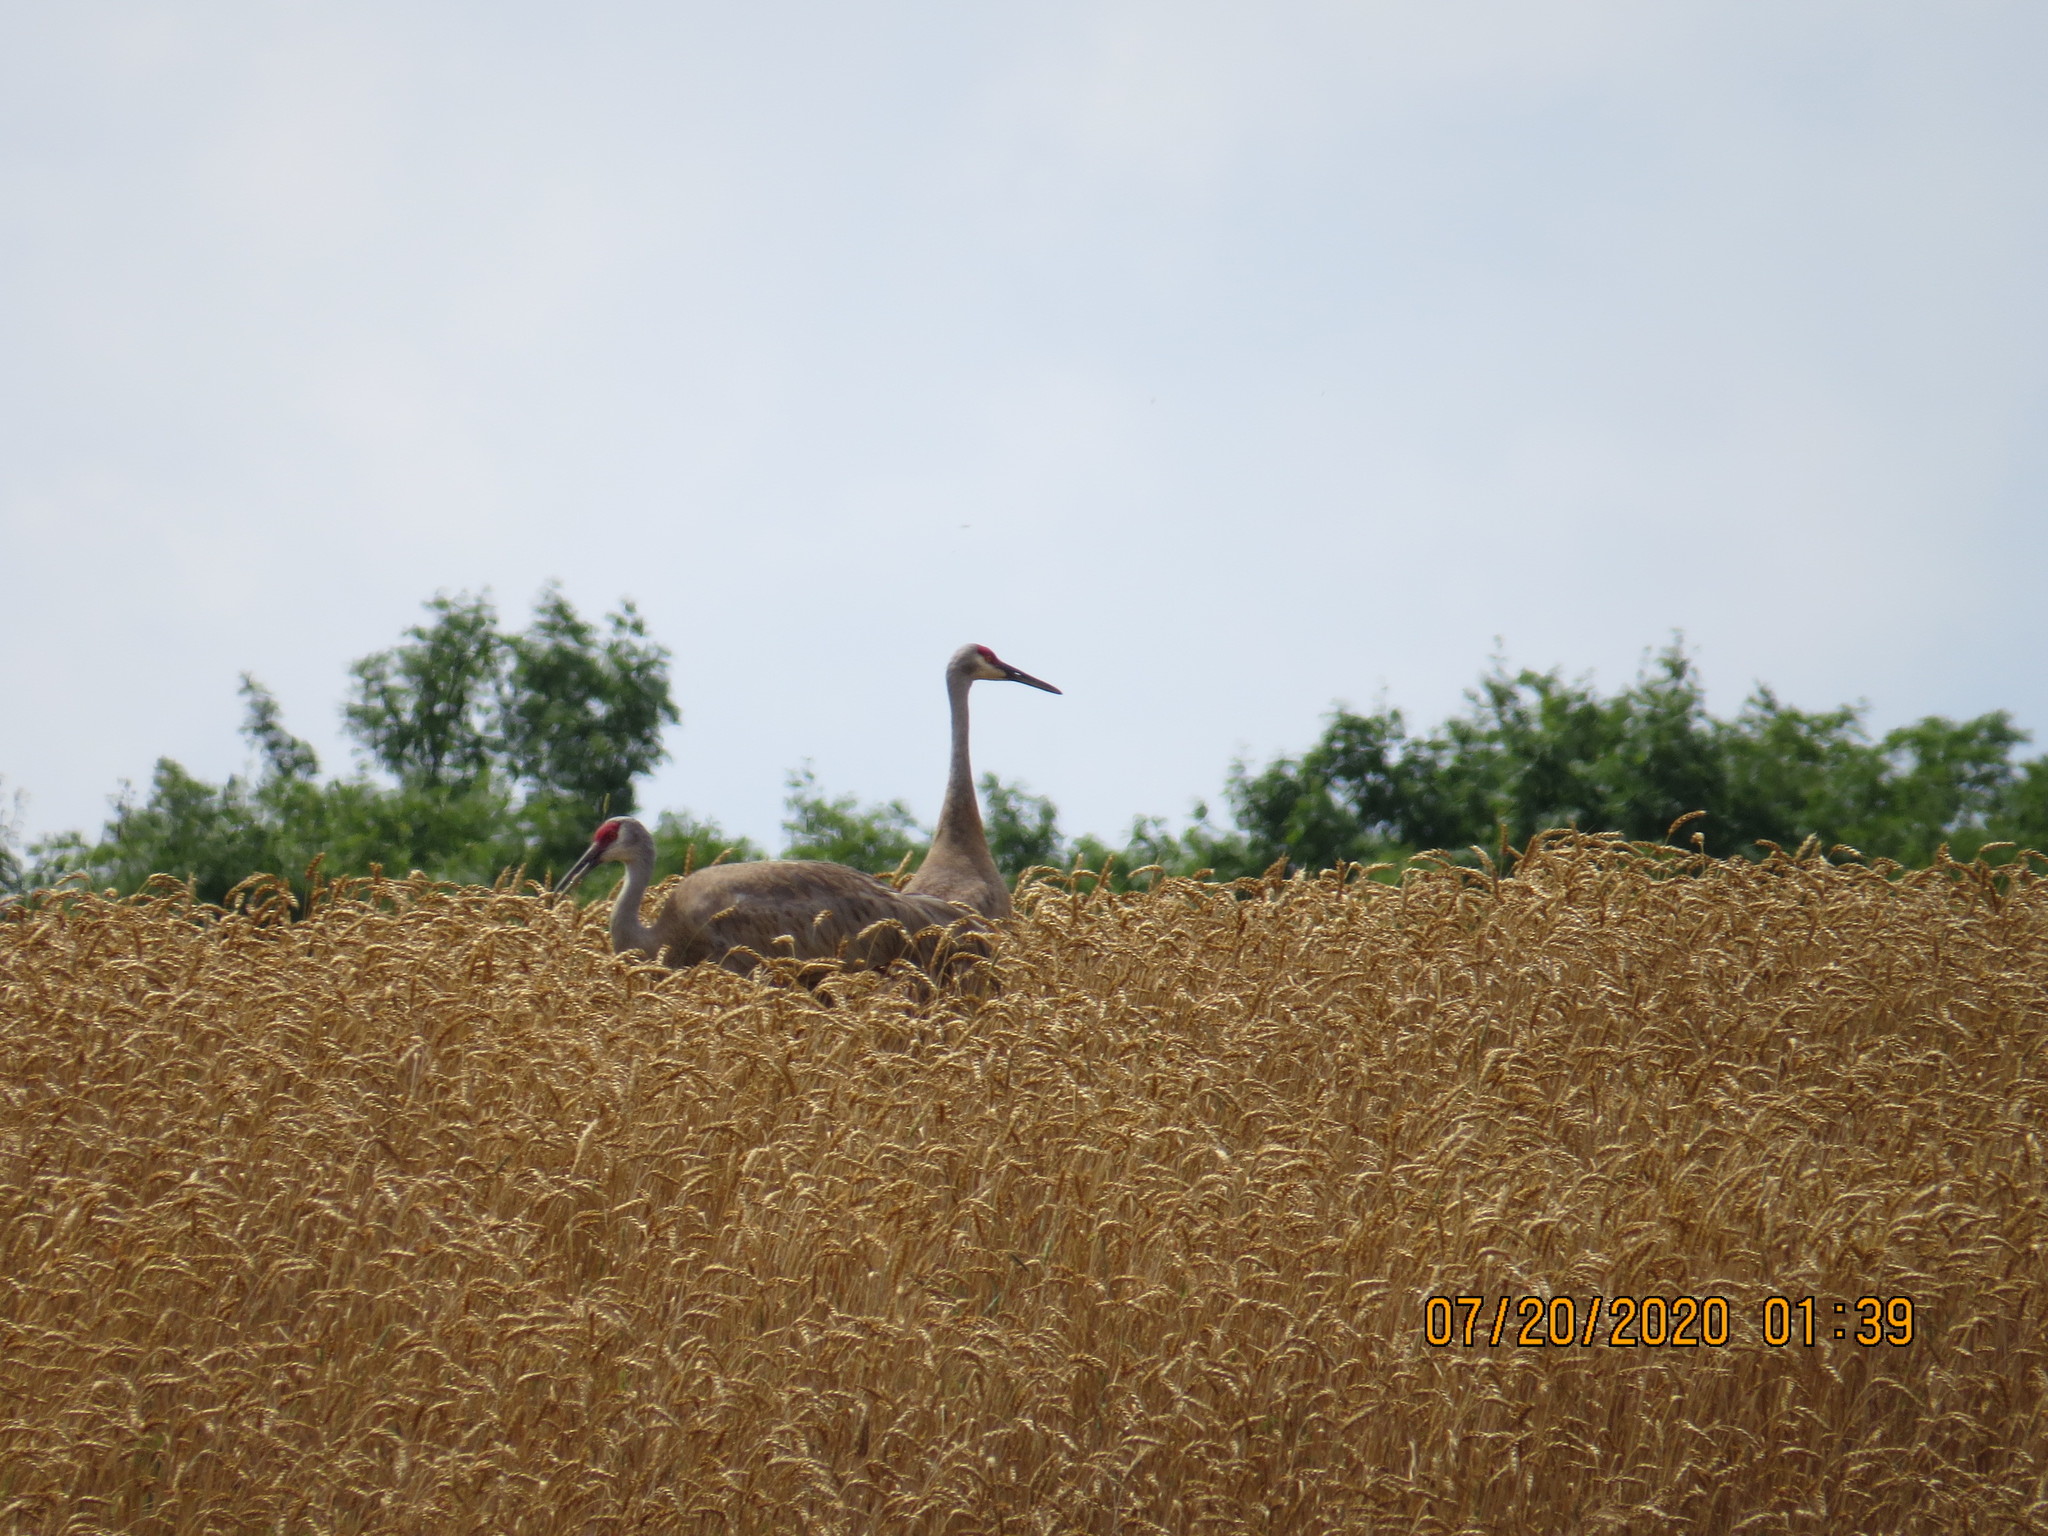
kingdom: Animalia
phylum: Chordata
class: Aves
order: Gruiformes
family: Gruidae
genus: Grus
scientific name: Grus canadensis
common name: Sandhill crane
